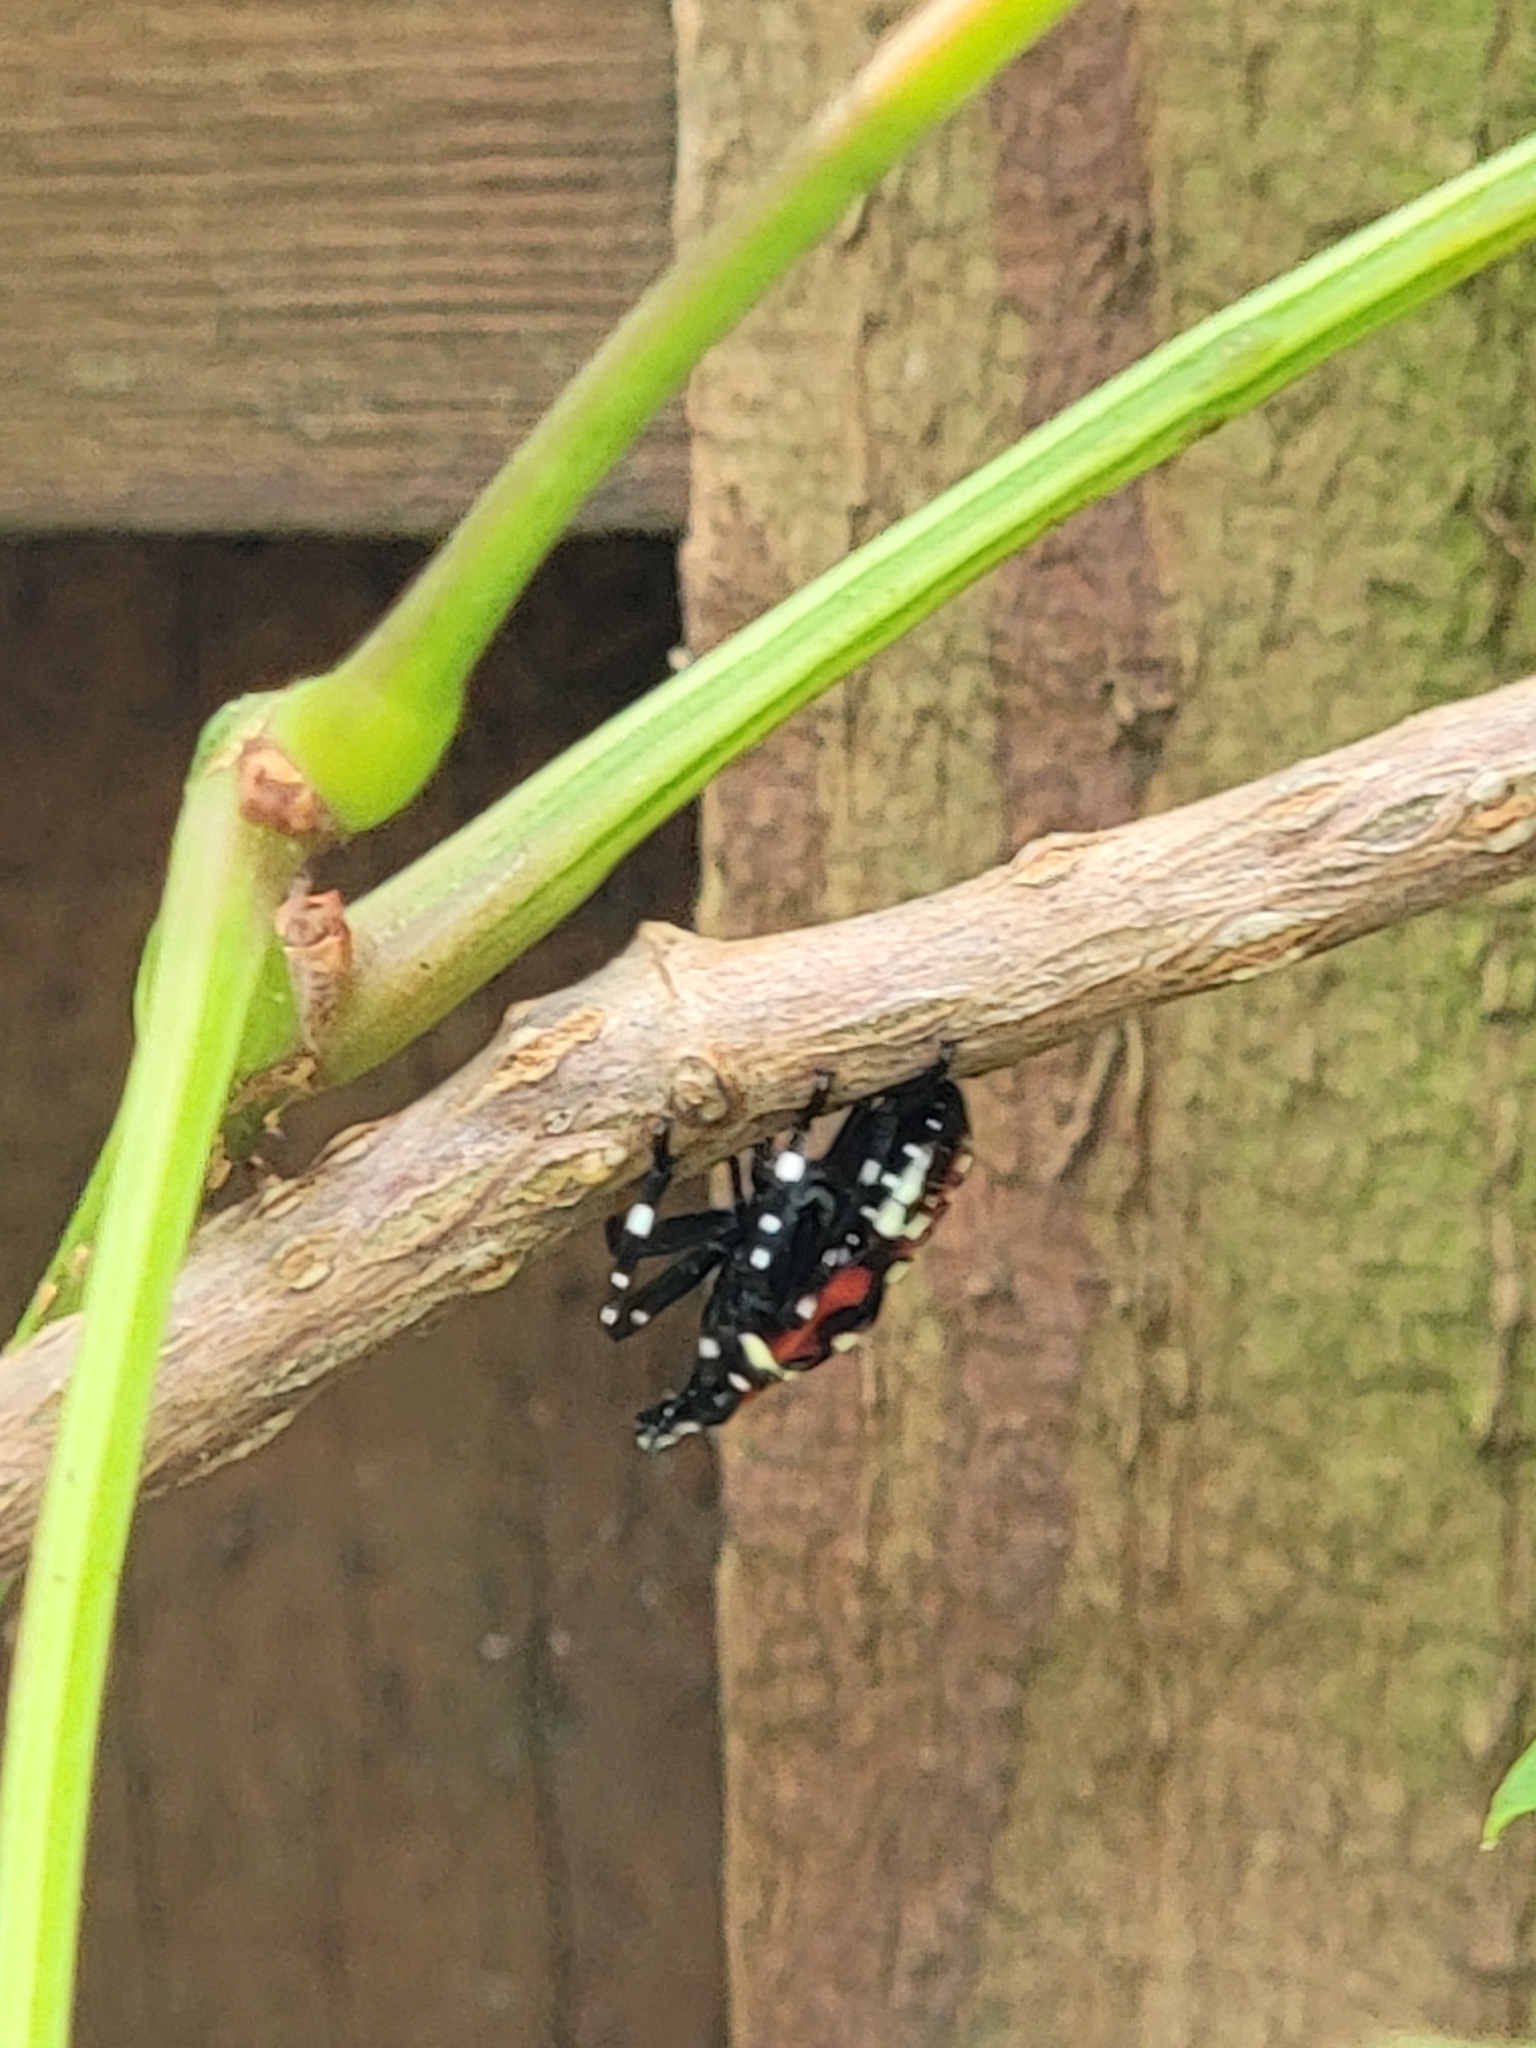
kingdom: Animalia
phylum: Arthropoda
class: Insecta
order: Hemiptera
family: Fulgoridae
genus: Lycorma
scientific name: Lycorma delicatula
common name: Spotted lanternfly
